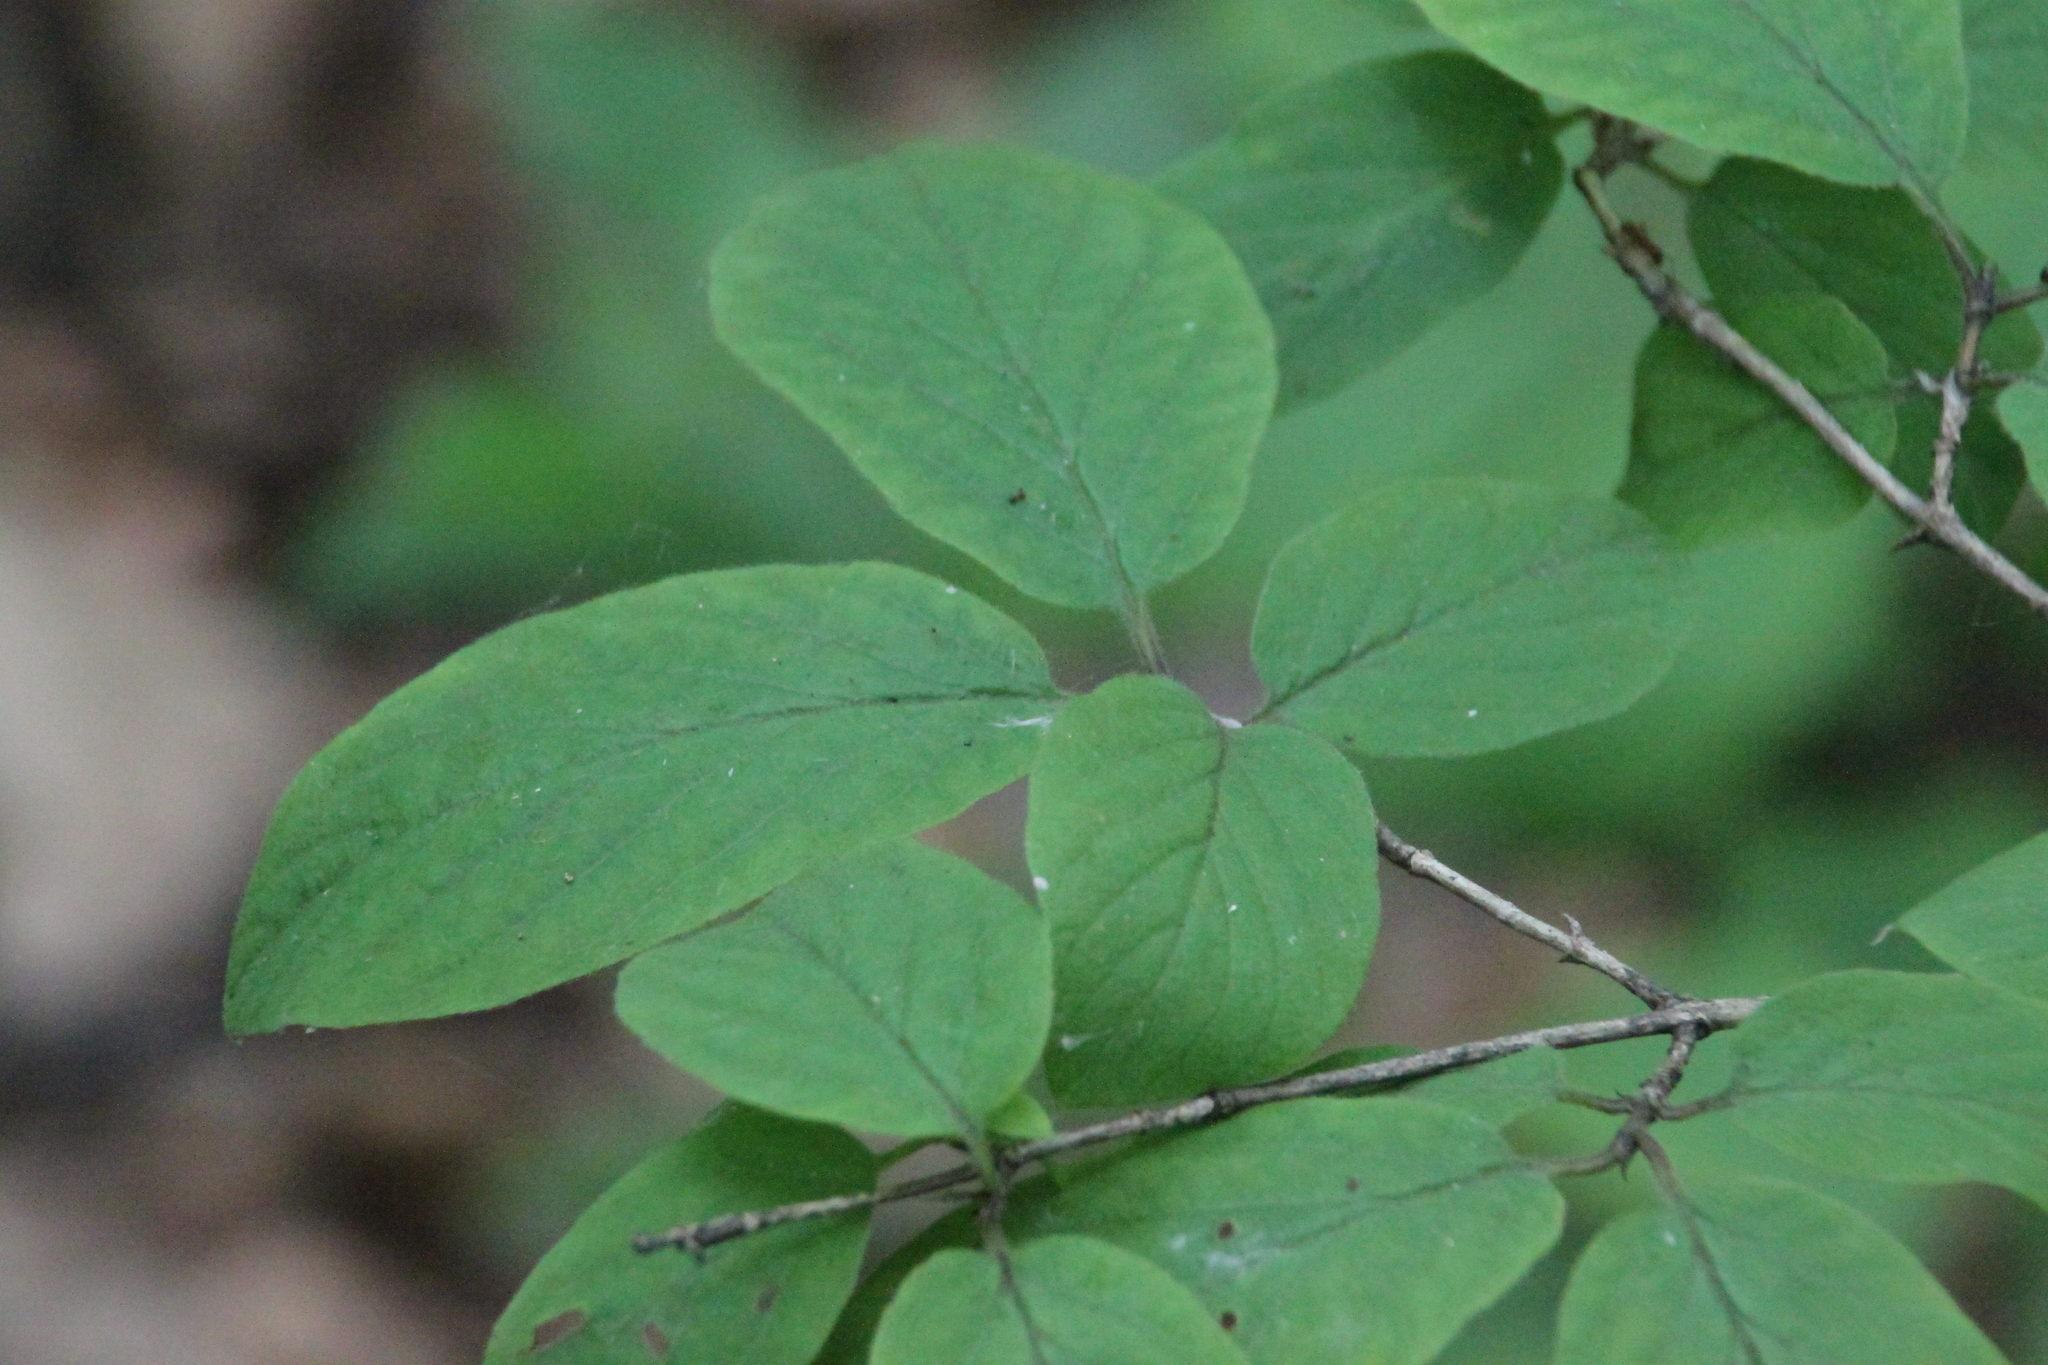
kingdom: Plantae
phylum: Tracheophyta
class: Magnoliopsida
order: Dipsacales
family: Caprifoliaceae
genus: Lonicera
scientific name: Lonicera xylosteum
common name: Fly honeysuckle
